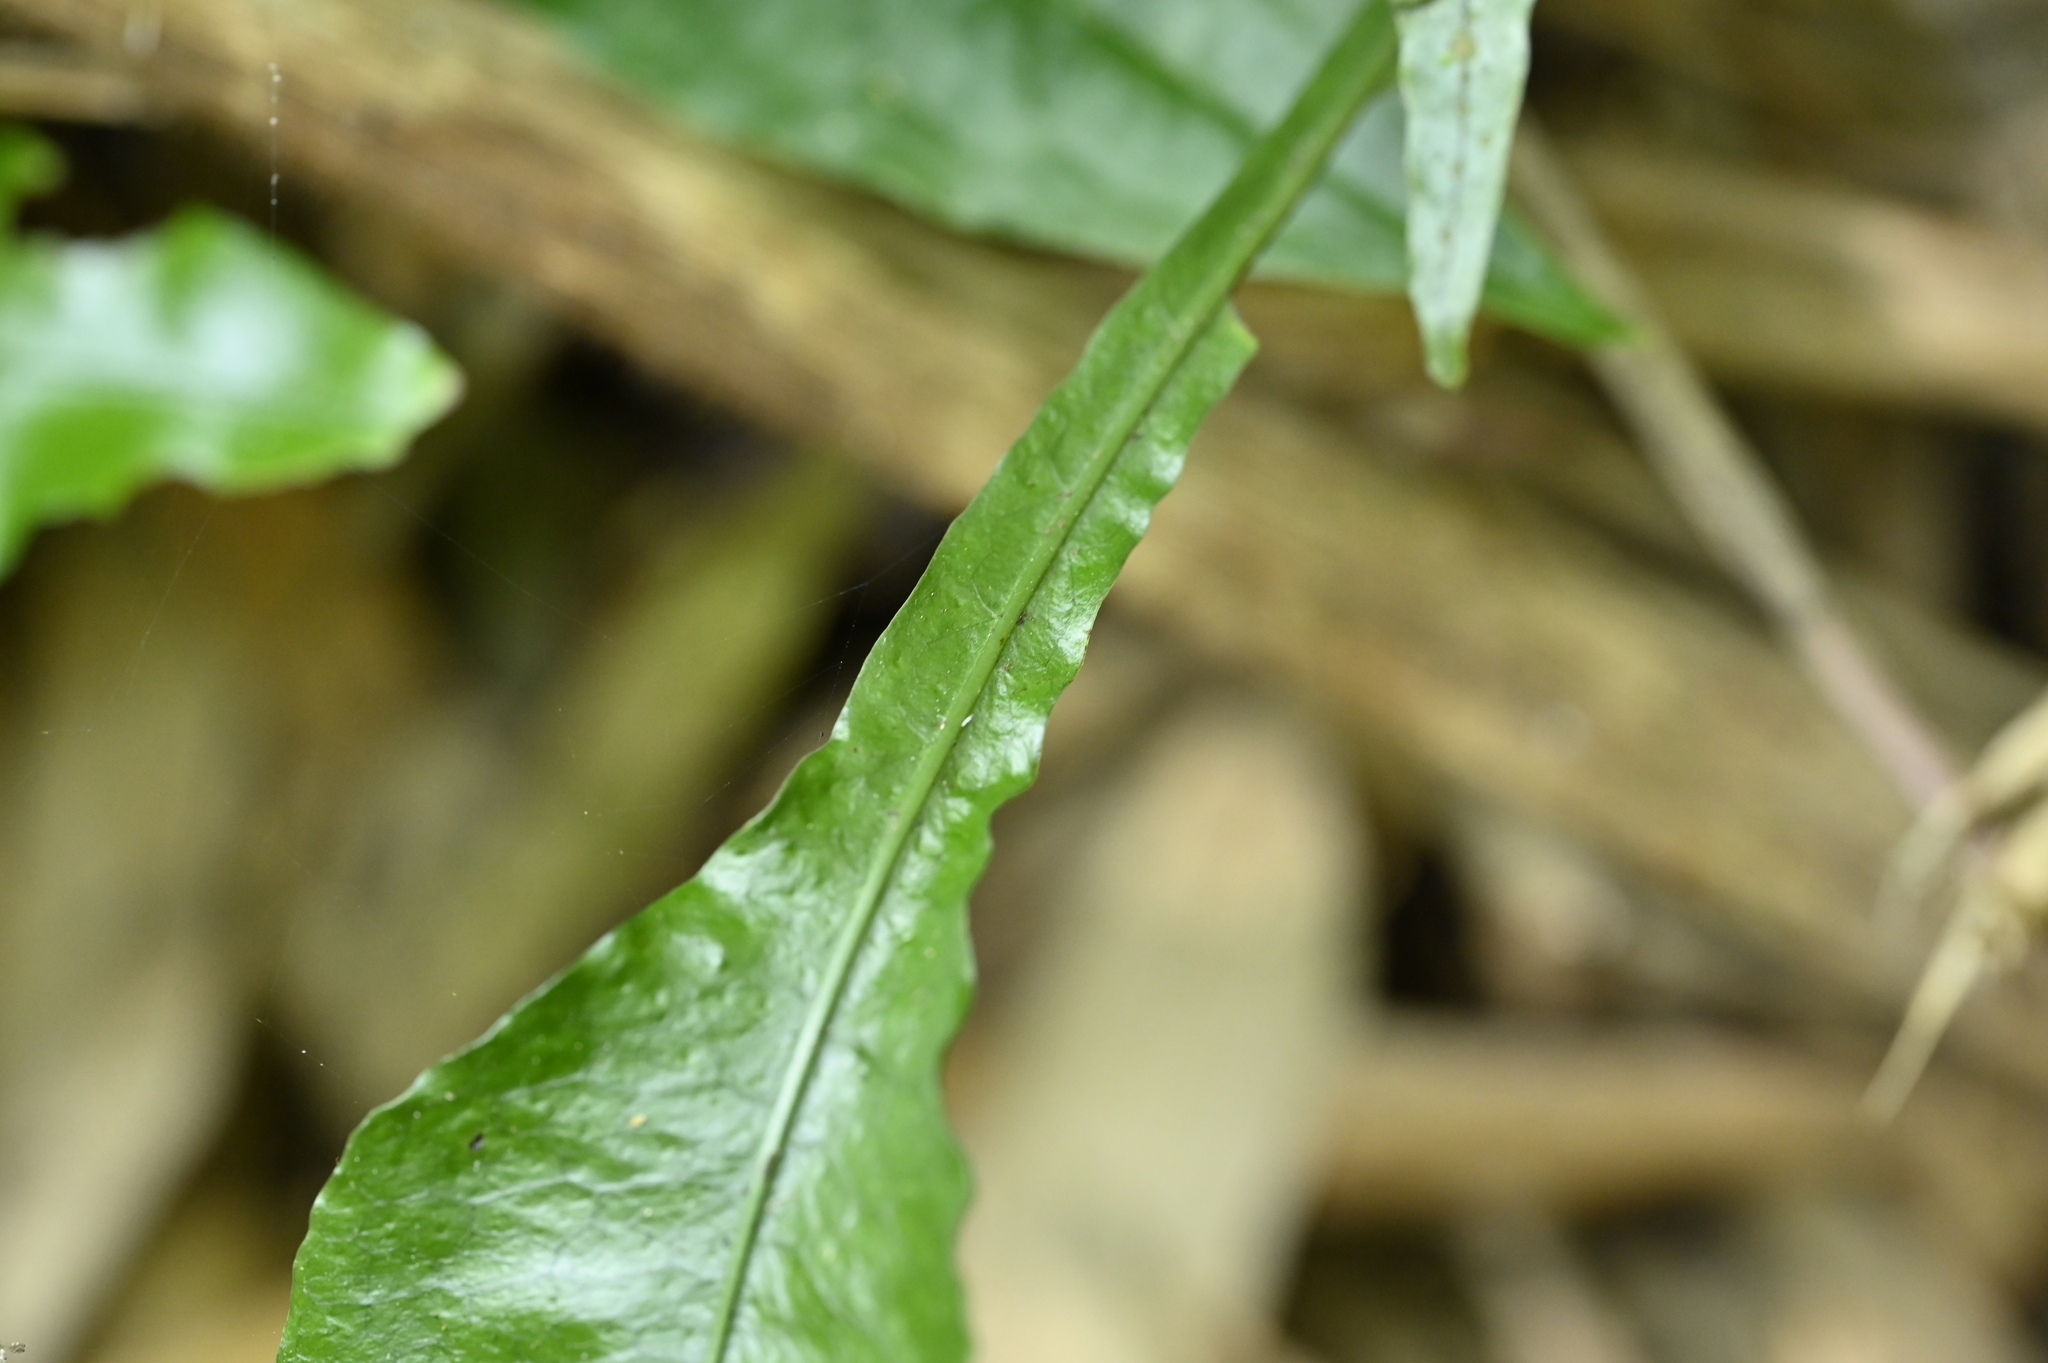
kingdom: Plantae
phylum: Tracheophyta
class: Polypodiopsida
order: Polypodiales
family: Polypodiaceae
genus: Leptochilus
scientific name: Leptochilus wrightii
